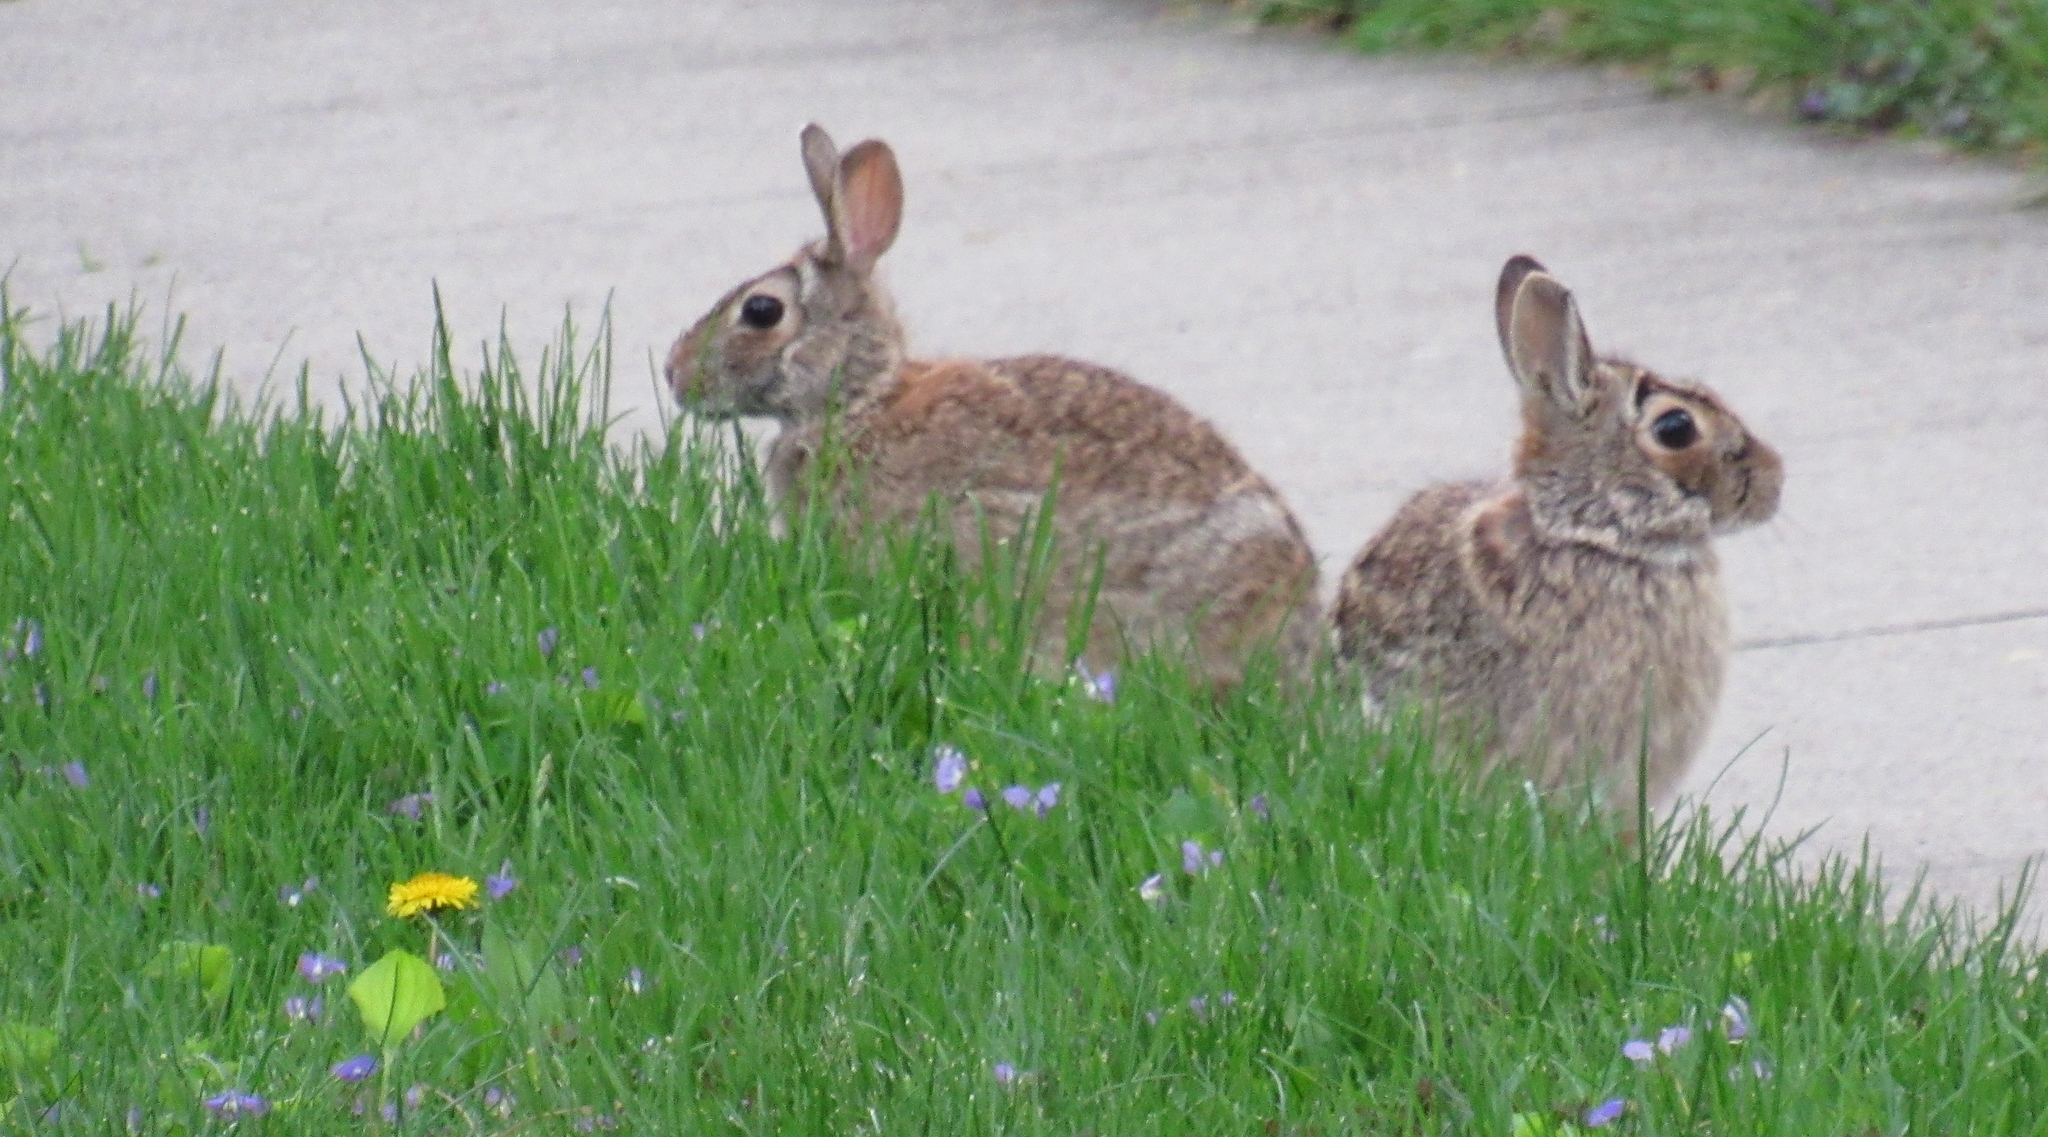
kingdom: Animalia
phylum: Chordata
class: Mammalia
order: Lagomorpha
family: Leporidae
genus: Sylvilagus
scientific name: Sylvilagus floridanus
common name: Eastern cottontail
